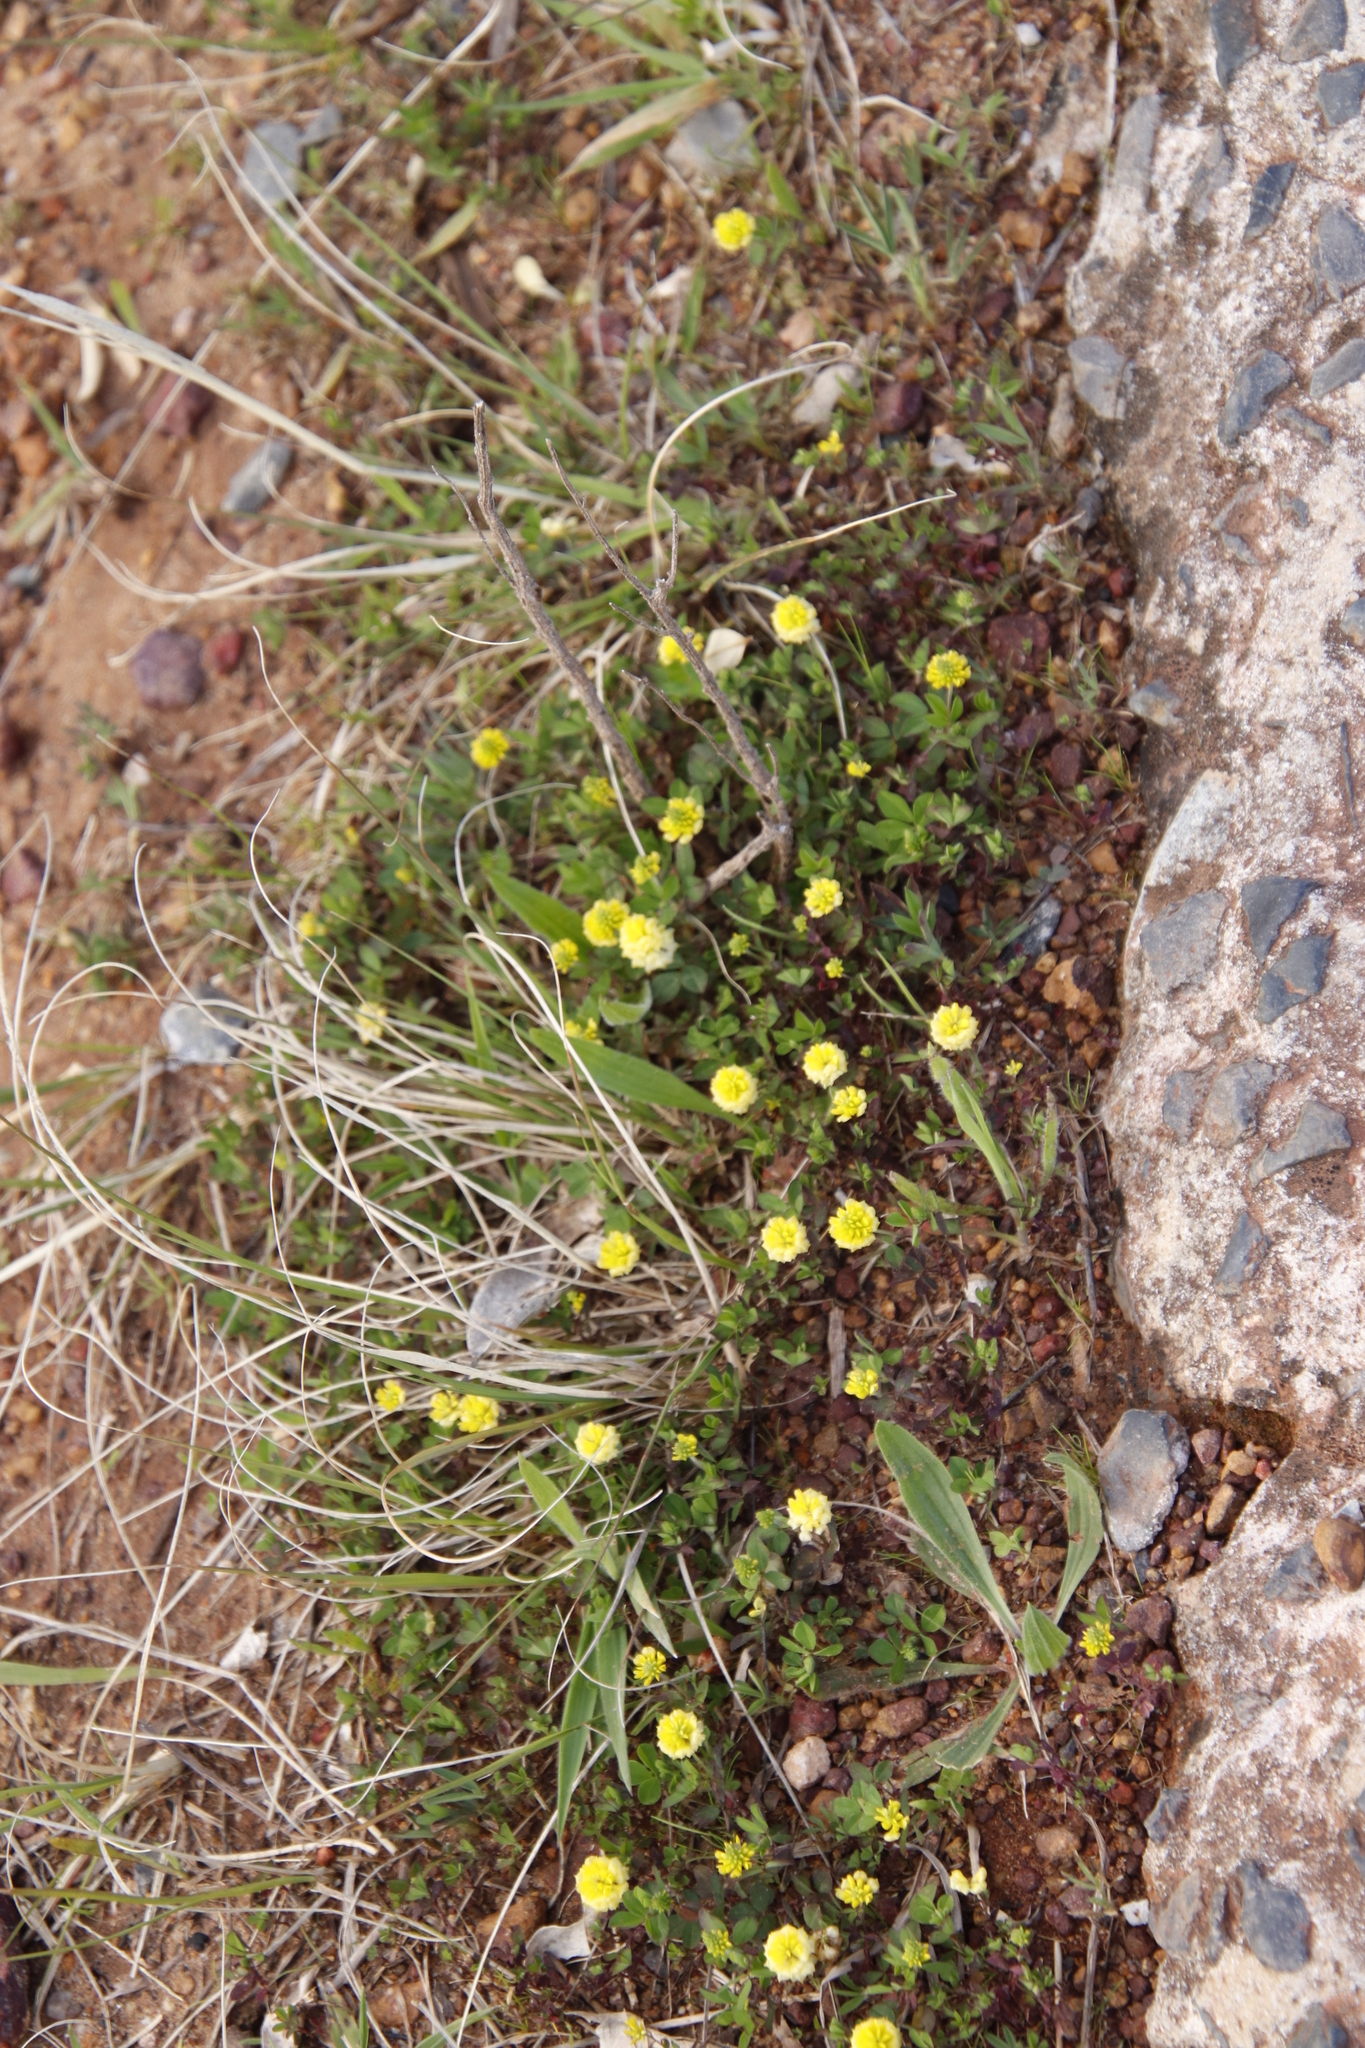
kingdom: Plantae
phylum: Tracheophyta
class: Magnoliopsida
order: Fabales
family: Fabaceae
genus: Trifolium
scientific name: Trifolium campestre
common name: Field clover
